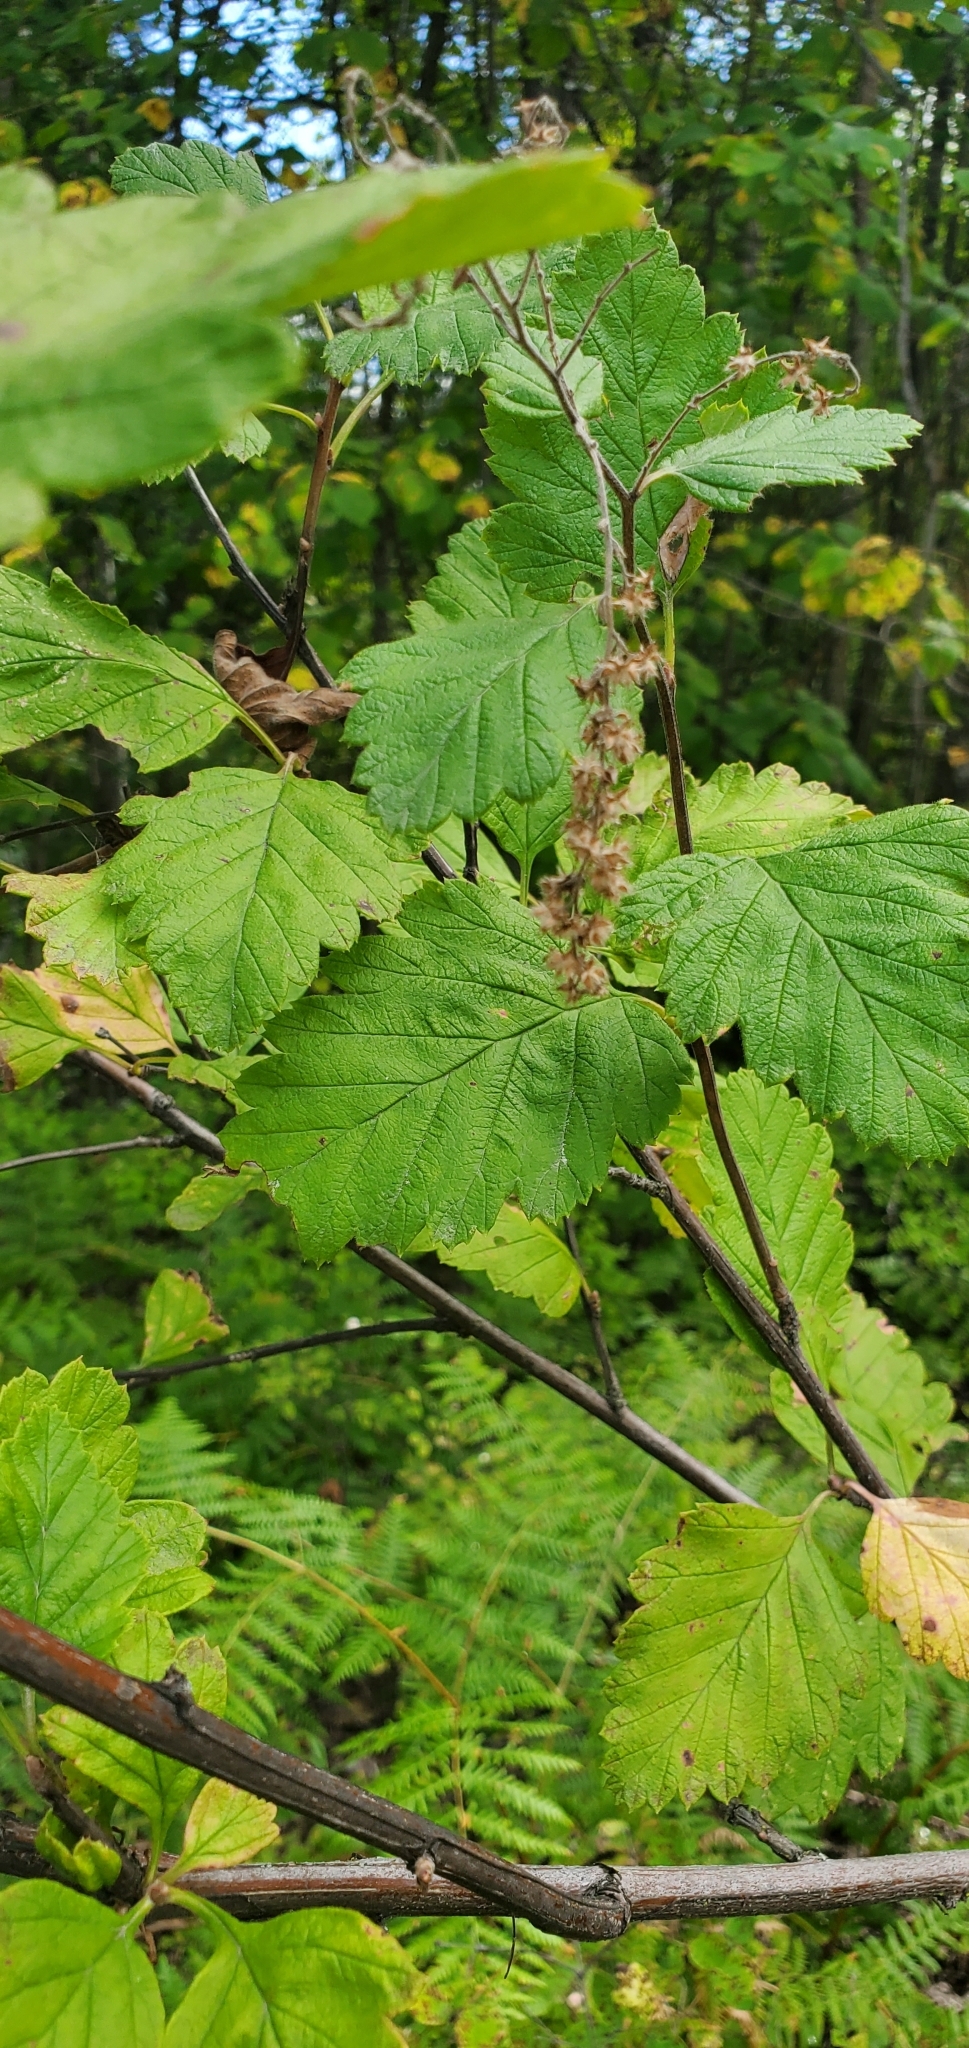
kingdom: Plantae
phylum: Tracheophyta
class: Magnoliopsida
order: Rosales
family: Rosaceae
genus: Holodiscus
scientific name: Holodiscus discolor
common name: Oceanspray
